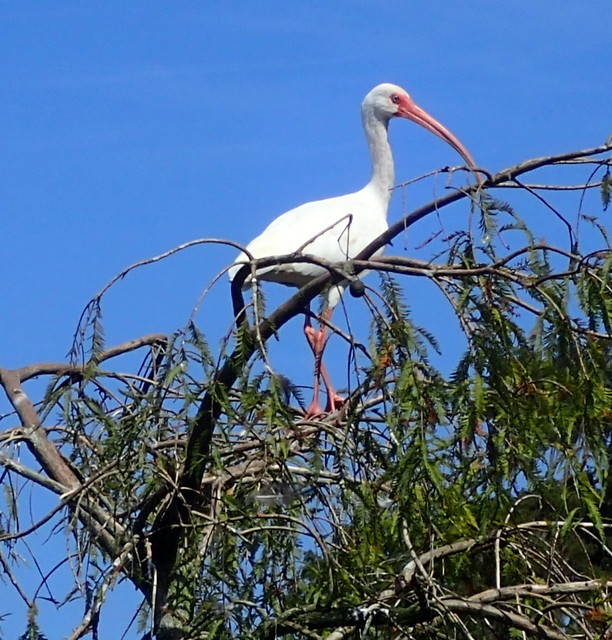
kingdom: Animalia
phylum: Chordata
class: Aves
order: Pelecaniformes
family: Threskiornithidae
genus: Eudocimus
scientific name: Eudocimus albus
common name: White ibis
